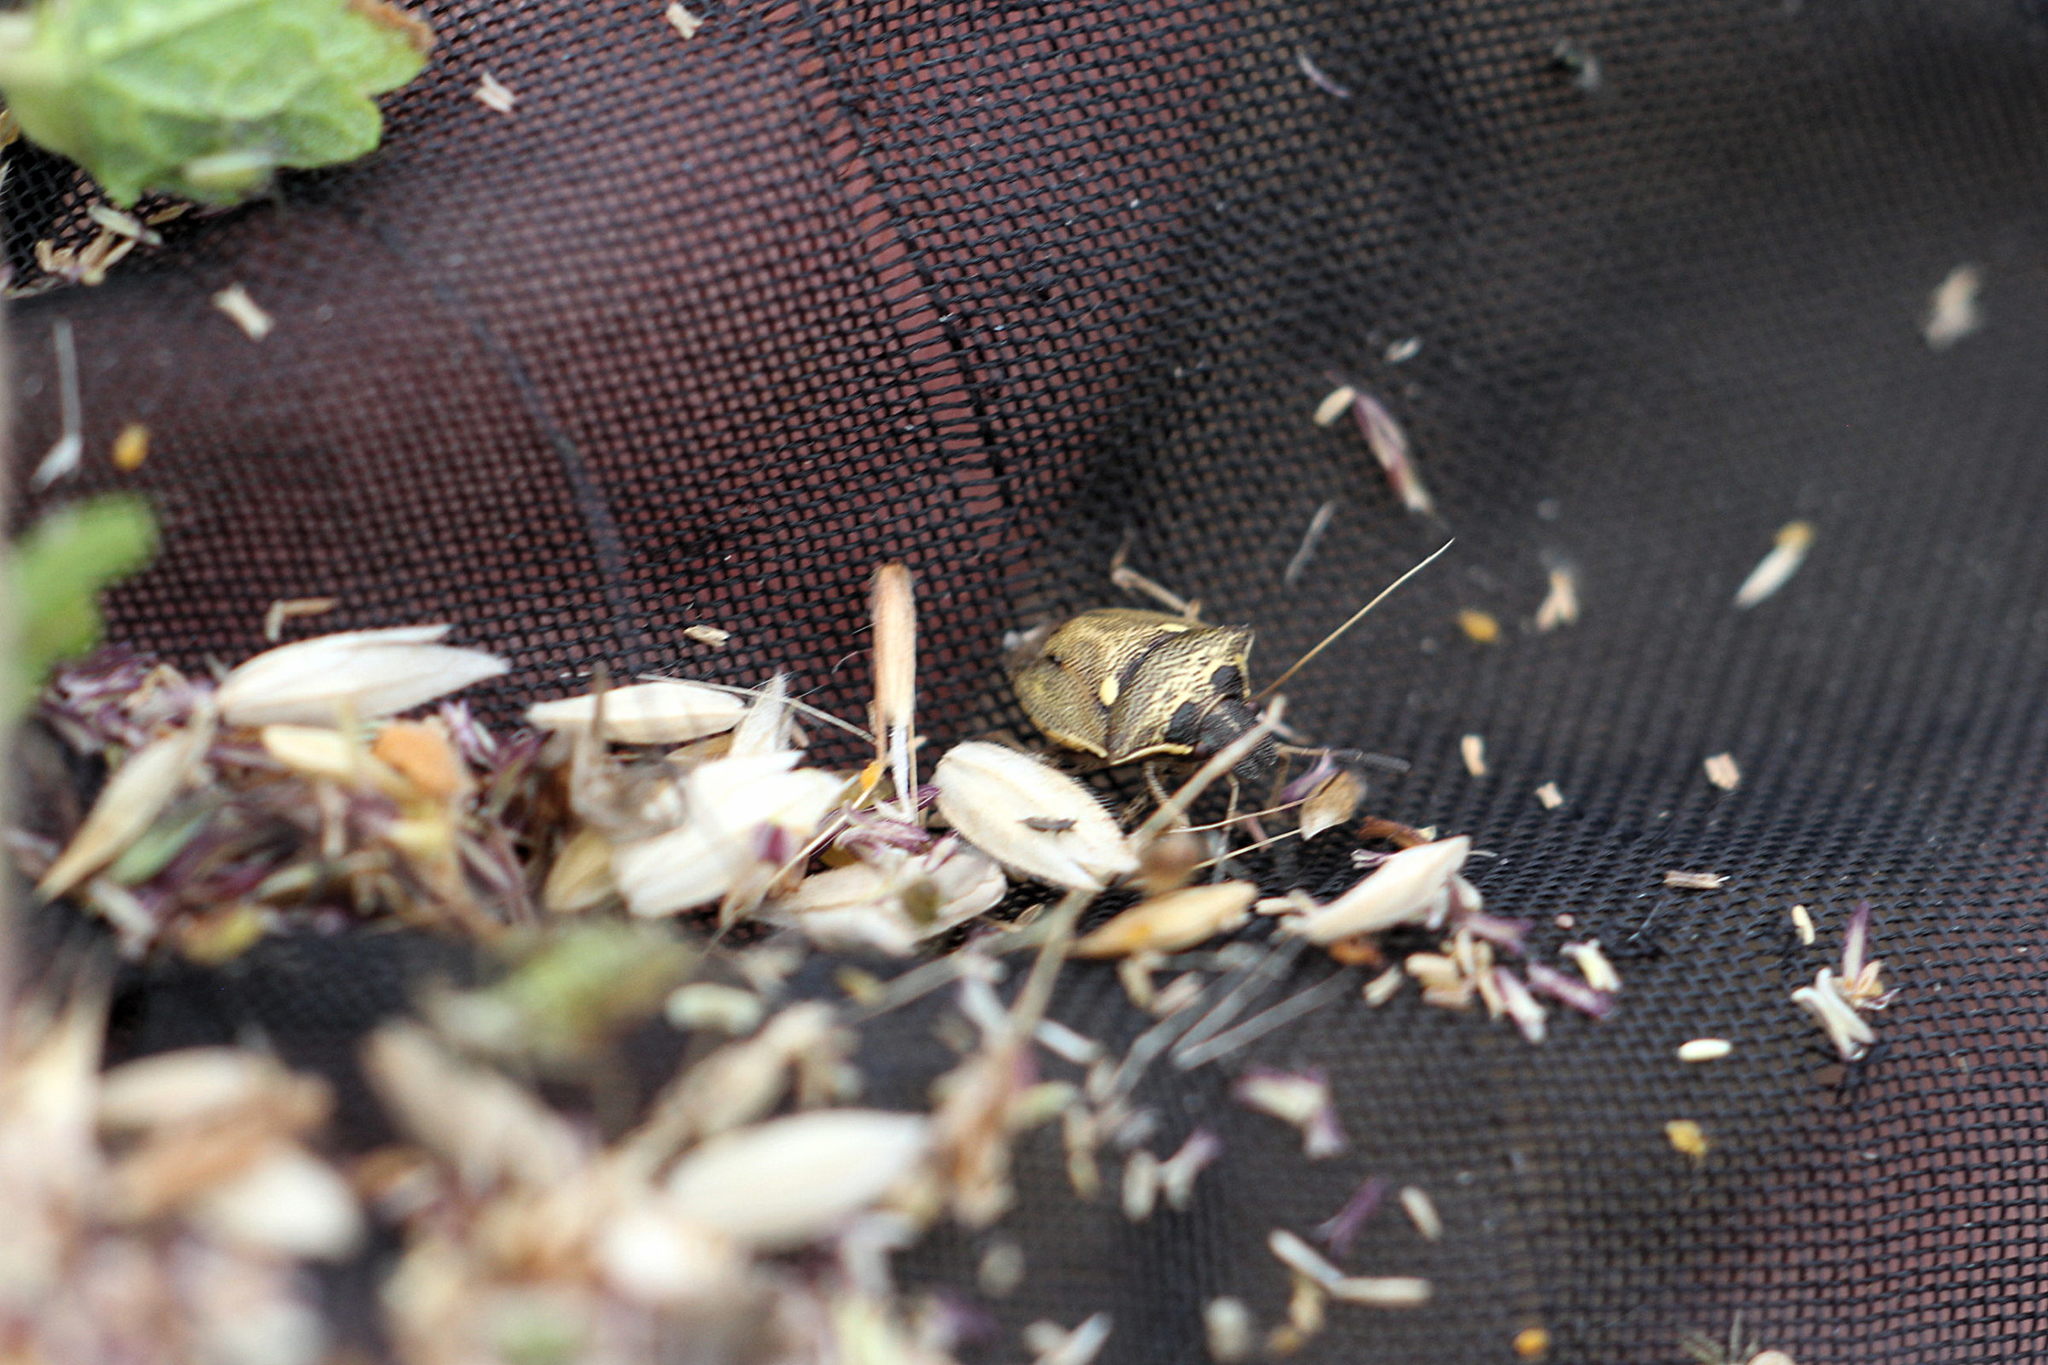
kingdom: Animalia
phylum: Arthropoda
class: Insecta
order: Hemiptera
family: Pentatomidae
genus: Eysarcoris
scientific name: Eysarcoris aeneus
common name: New forest shieldbug
